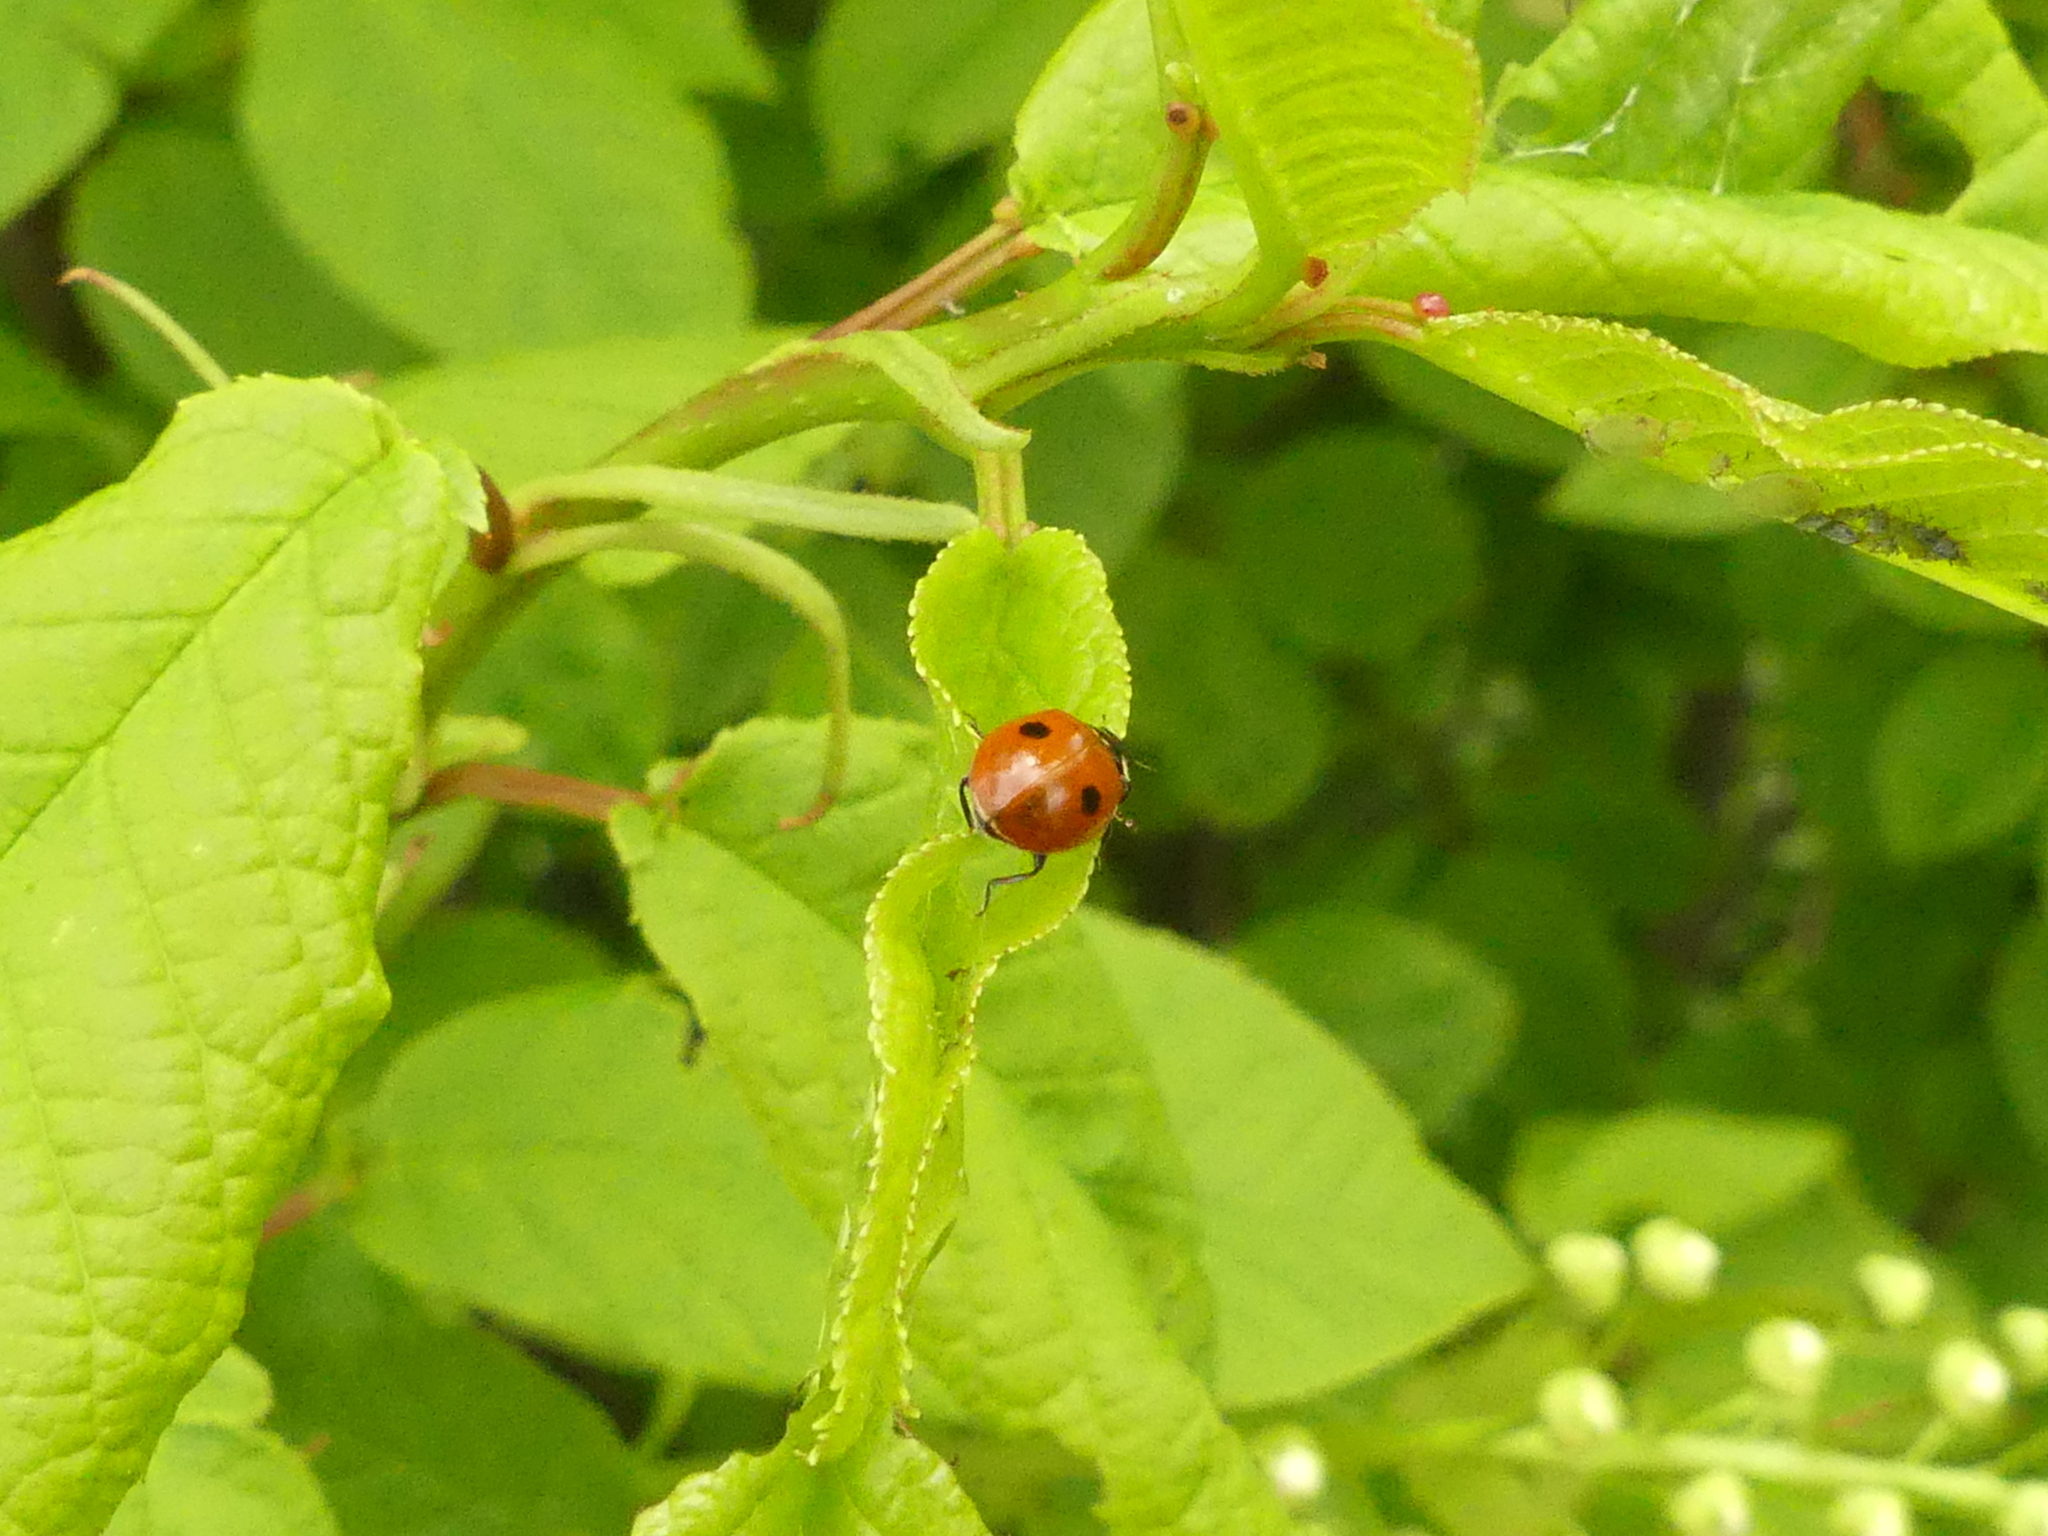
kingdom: Animalia
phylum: Arthropoda
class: Insecta
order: Coleoptera
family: Coccinellidae
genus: Adalia
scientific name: Adalia bipunctata
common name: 2-spot ladybird
